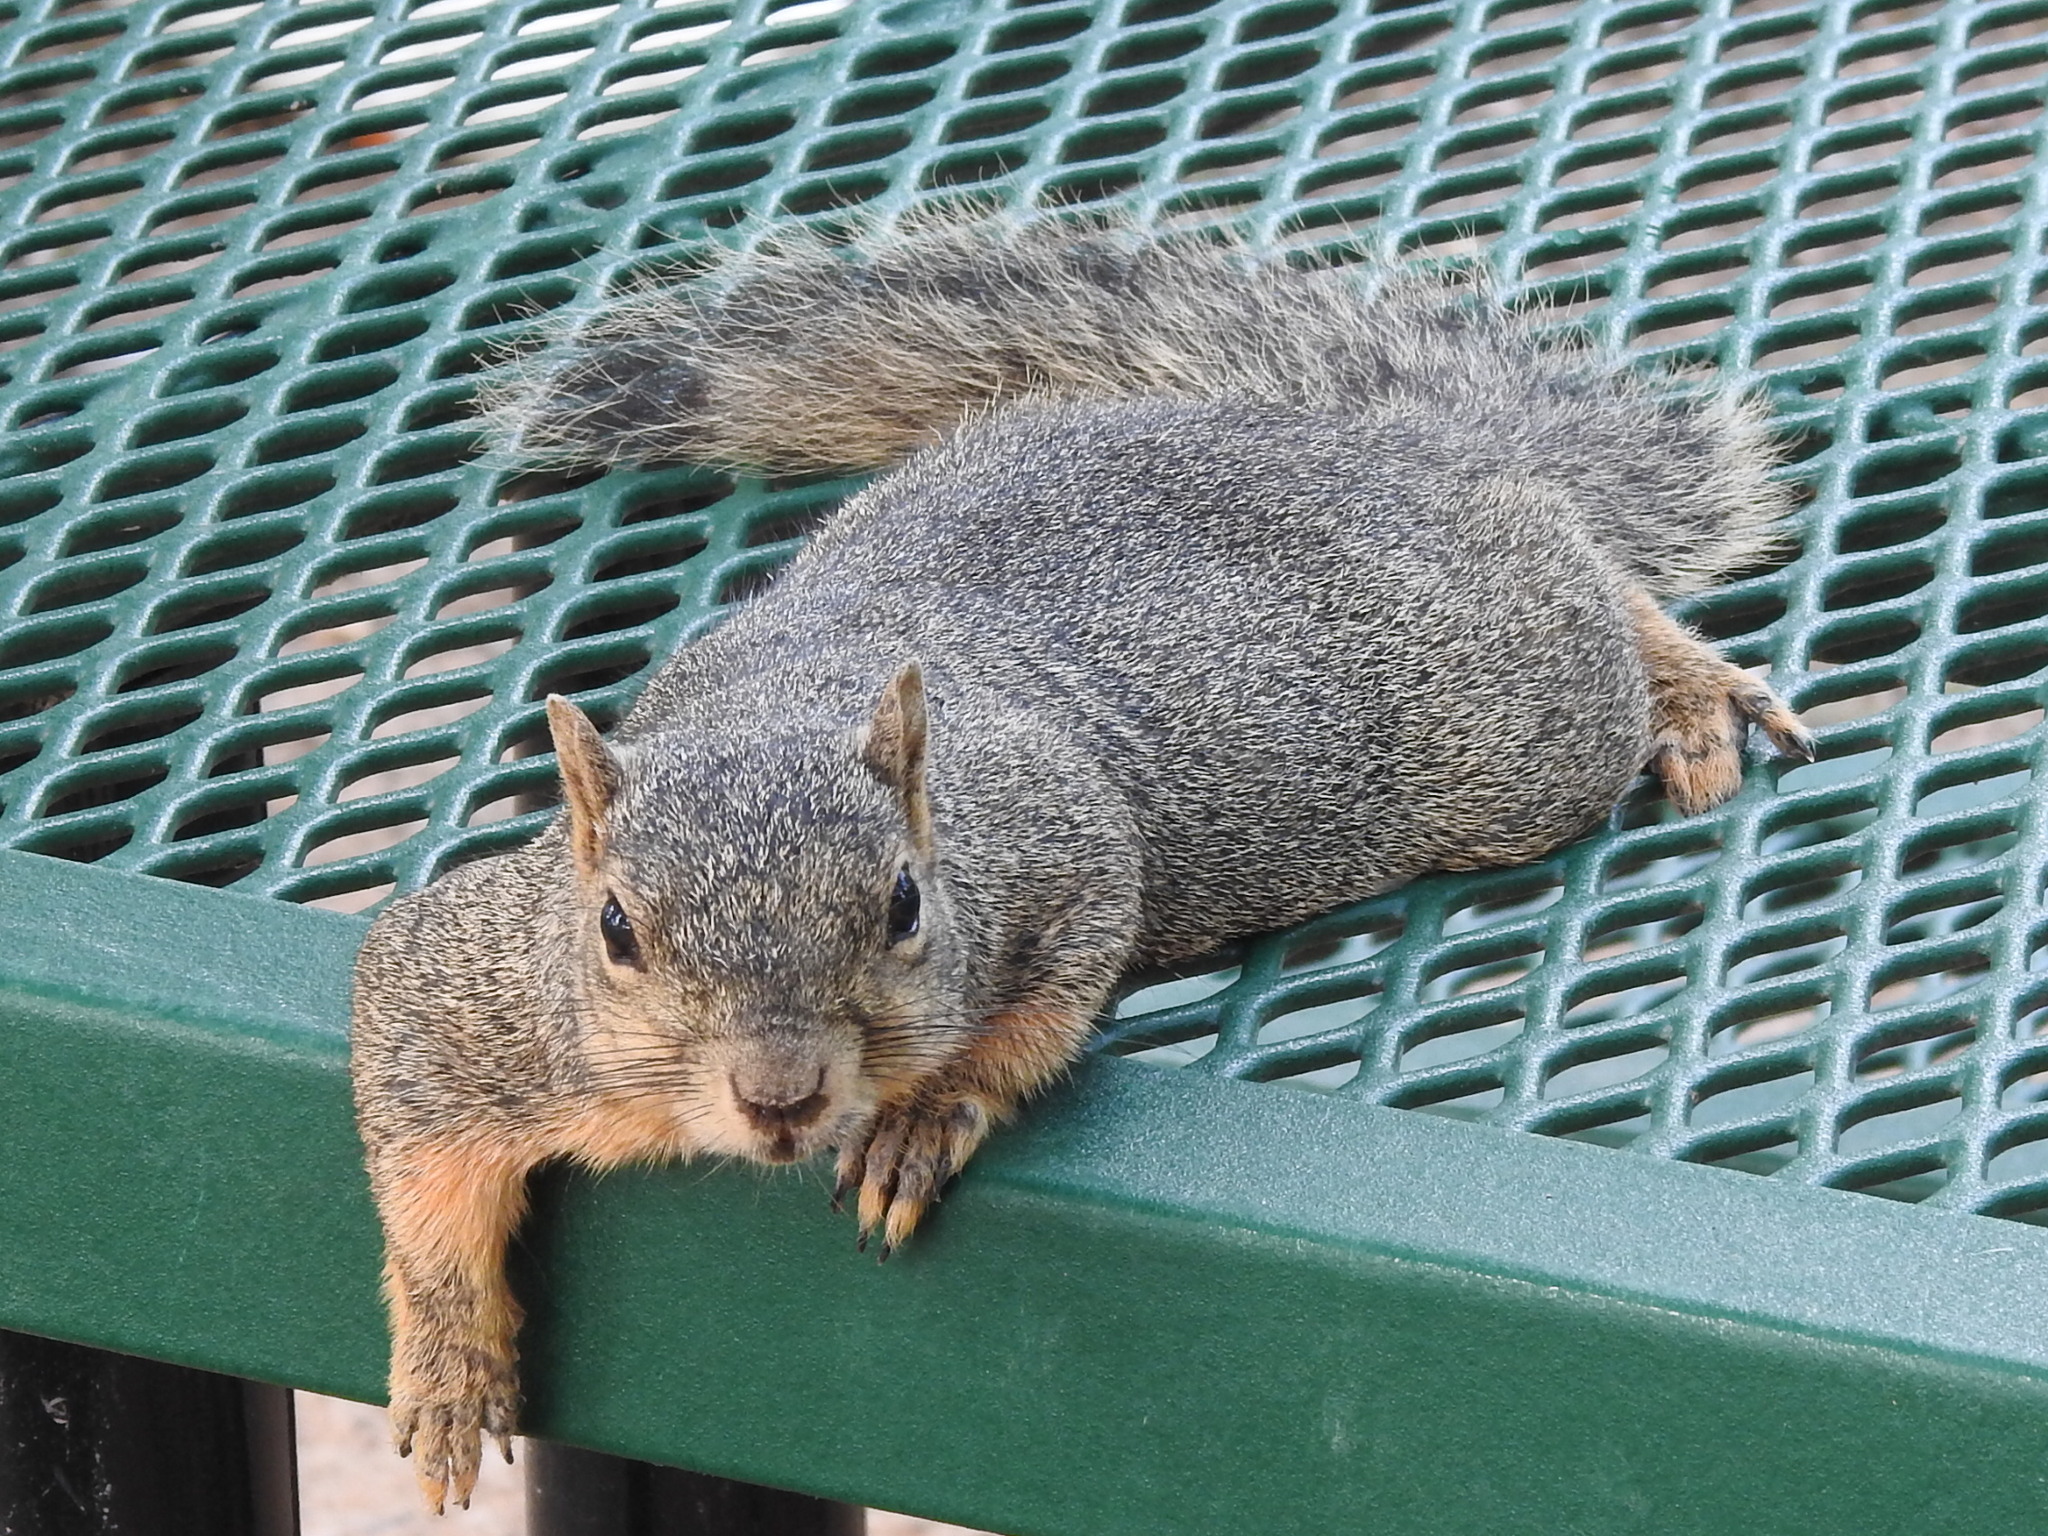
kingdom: Animalia
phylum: Chordata
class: Mammalia
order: Rodentia
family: Sciuridae
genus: Sciurus
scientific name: Sciurus niger
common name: Fox squirrel
